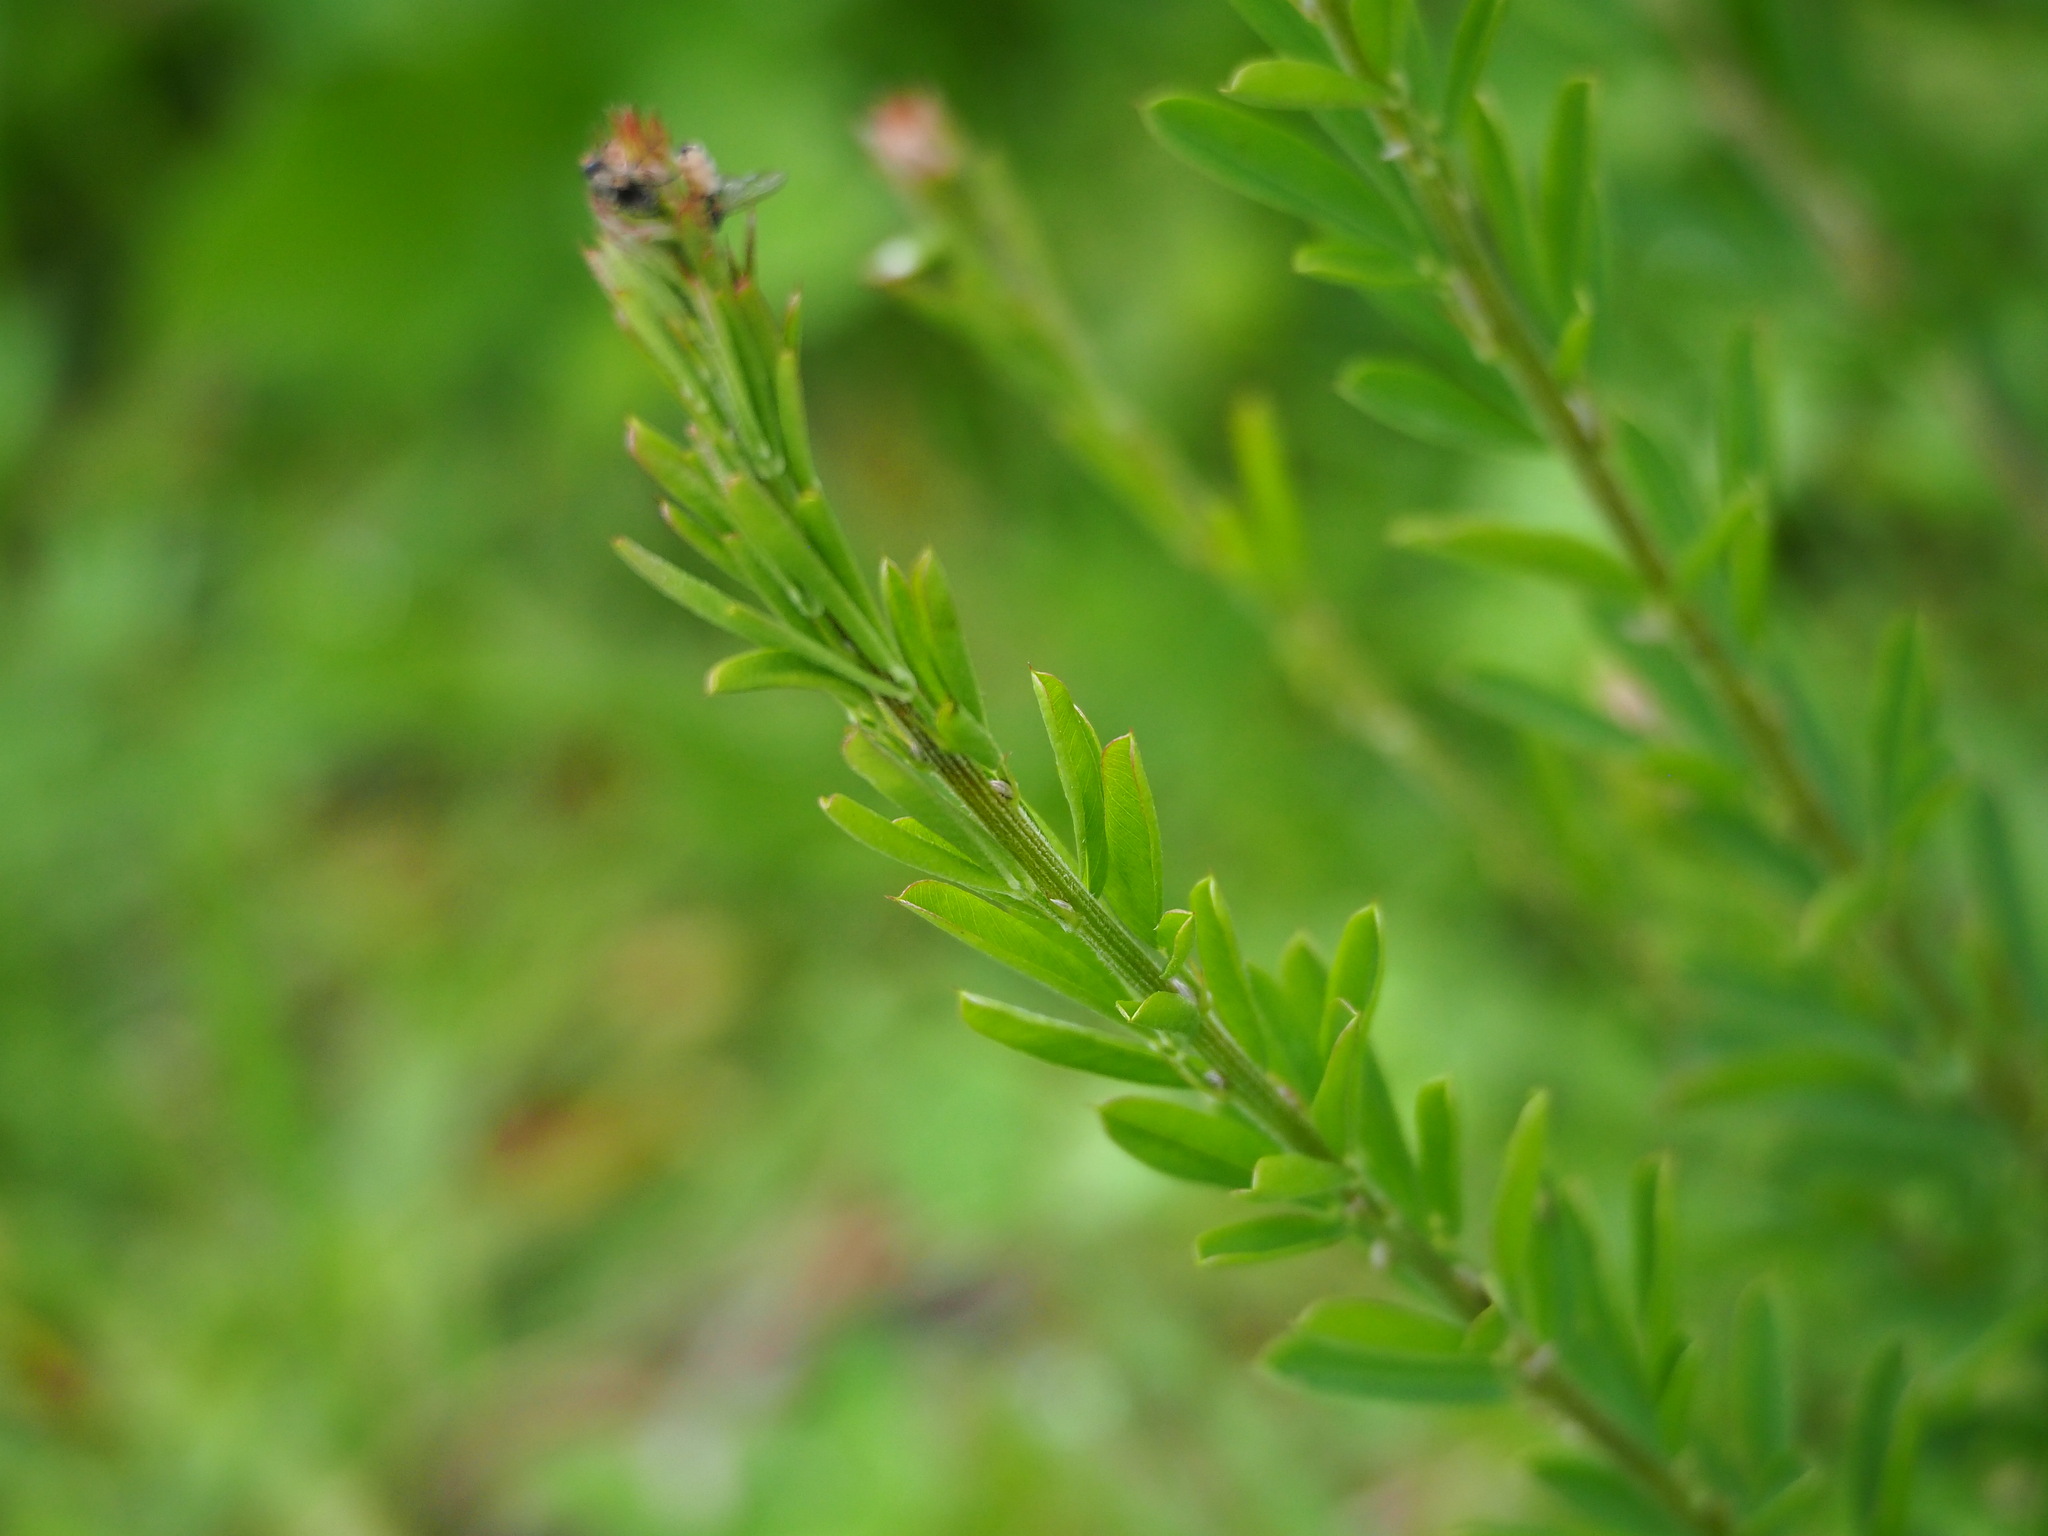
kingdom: Plantae
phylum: Tracheophyta
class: Magnoliopsida
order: Fabales
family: Fabaceae
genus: Lespedeza
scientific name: Lespedeza cuneata
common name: Chinese bush-clover
